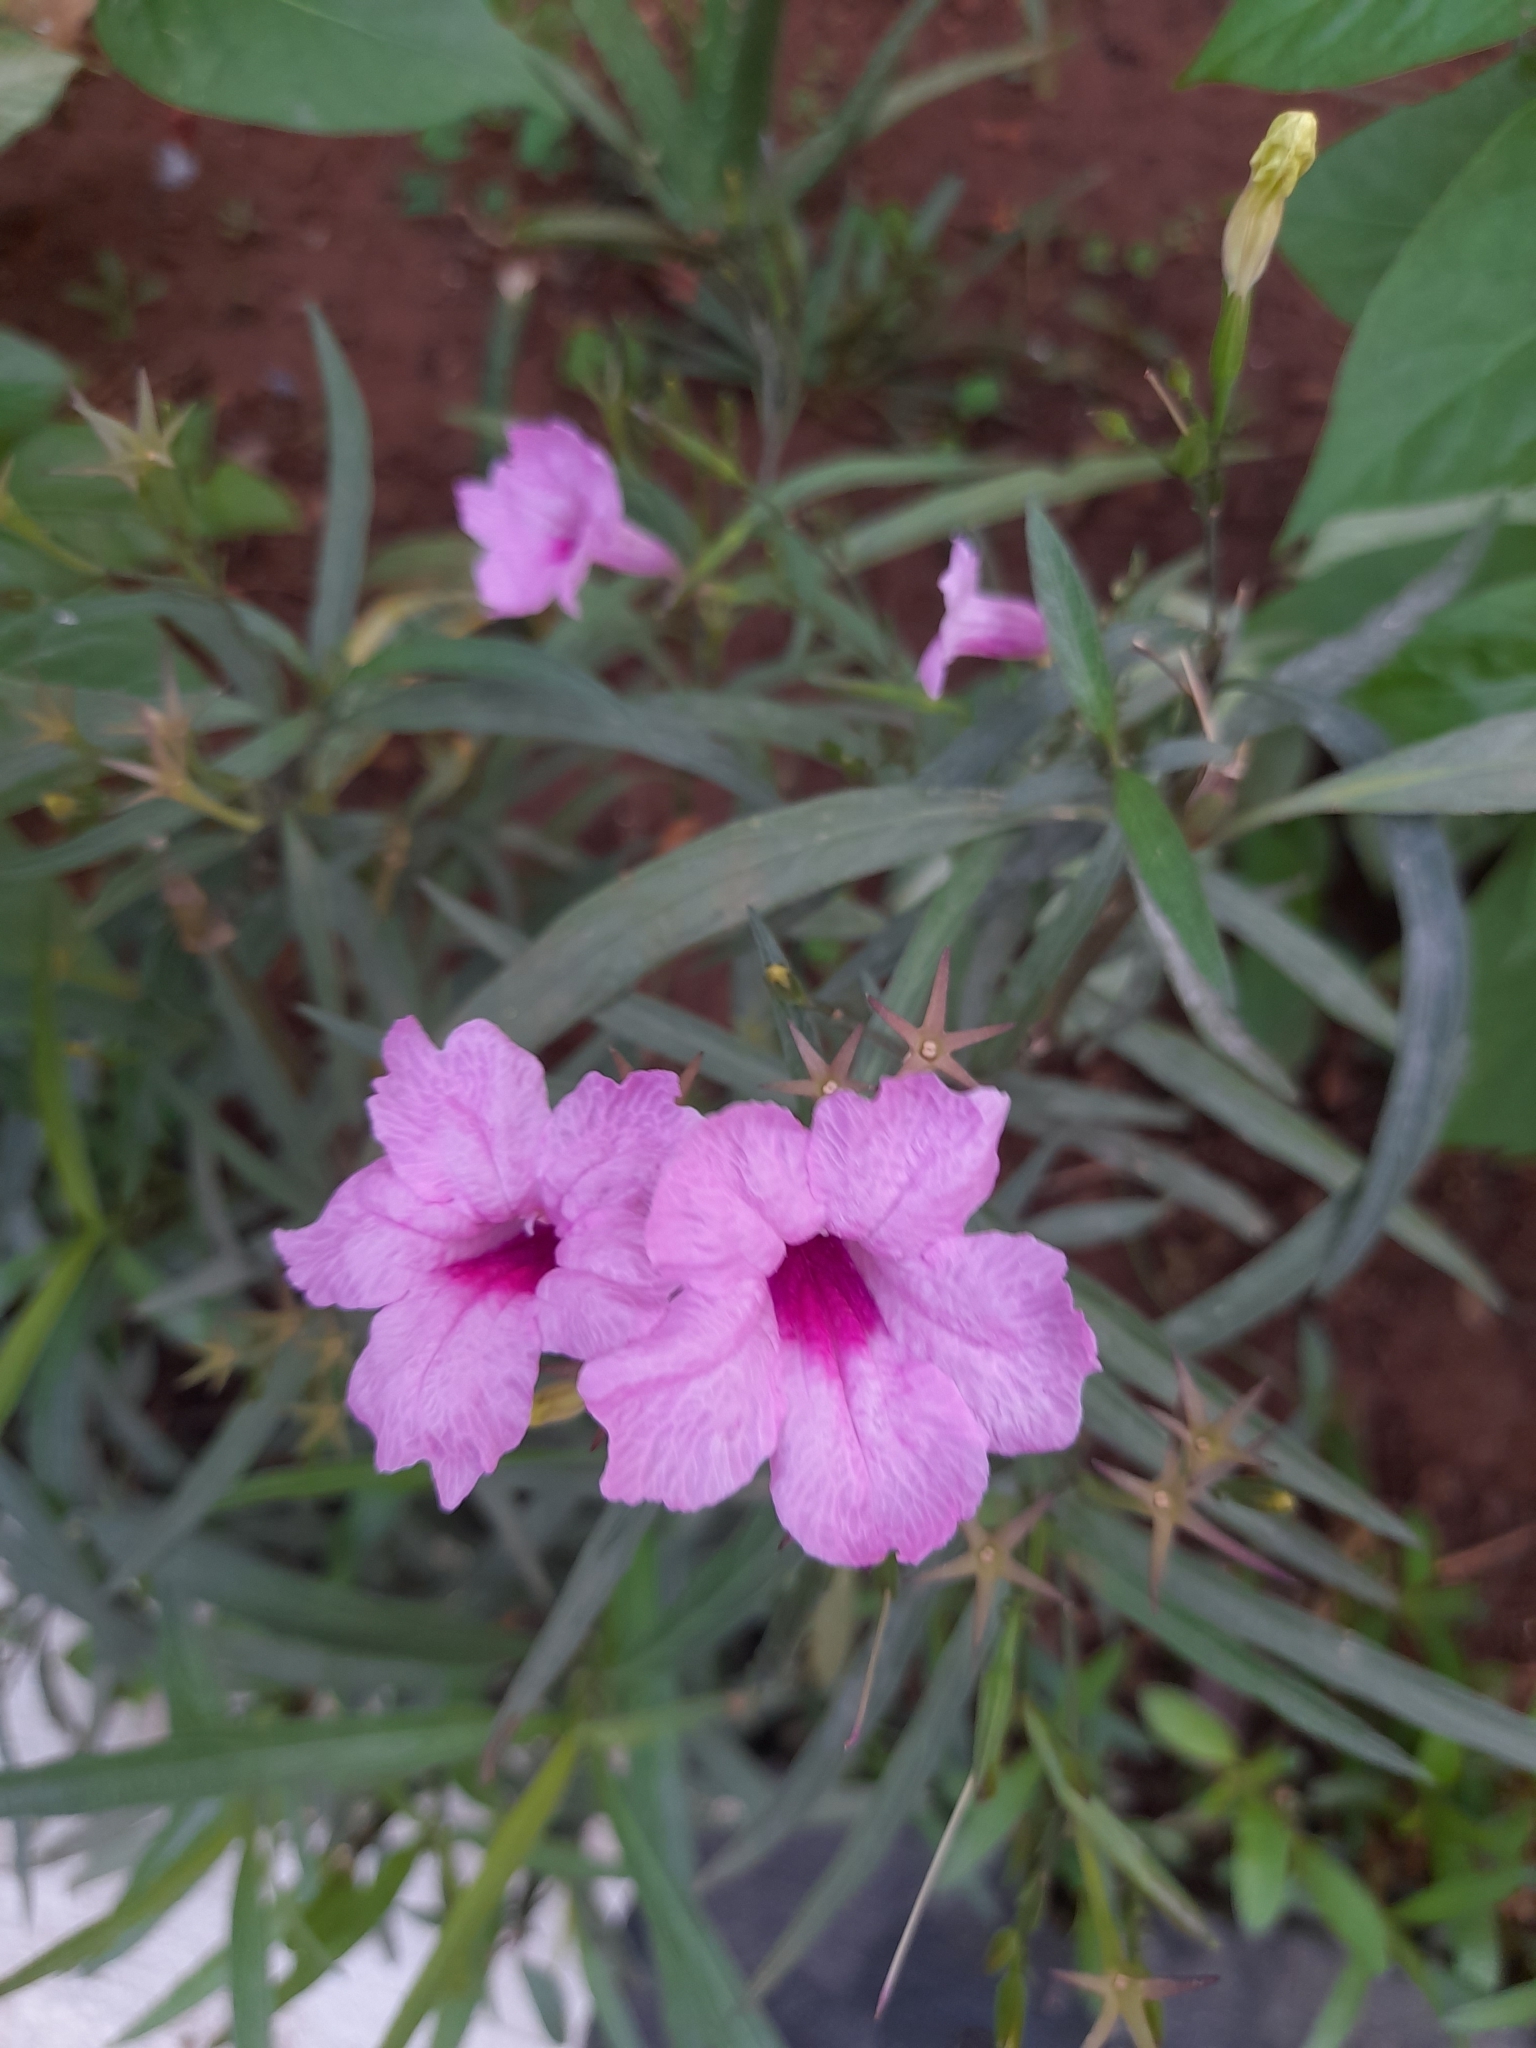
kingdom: Plantae
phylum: Tracheophyta
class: Magnoliopsida
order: Lamiales
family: Acanthaceae
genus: Ruellia
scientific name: Ruellia simplex
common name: Softseed wild petunia
